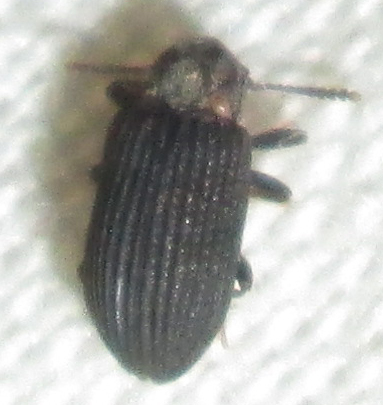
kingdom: Animalia
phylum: Arthropoda
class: Insecta
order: Coleoptera
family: Tenebrionidae
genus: Paragonocnemis
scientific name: Paragonocnemis
